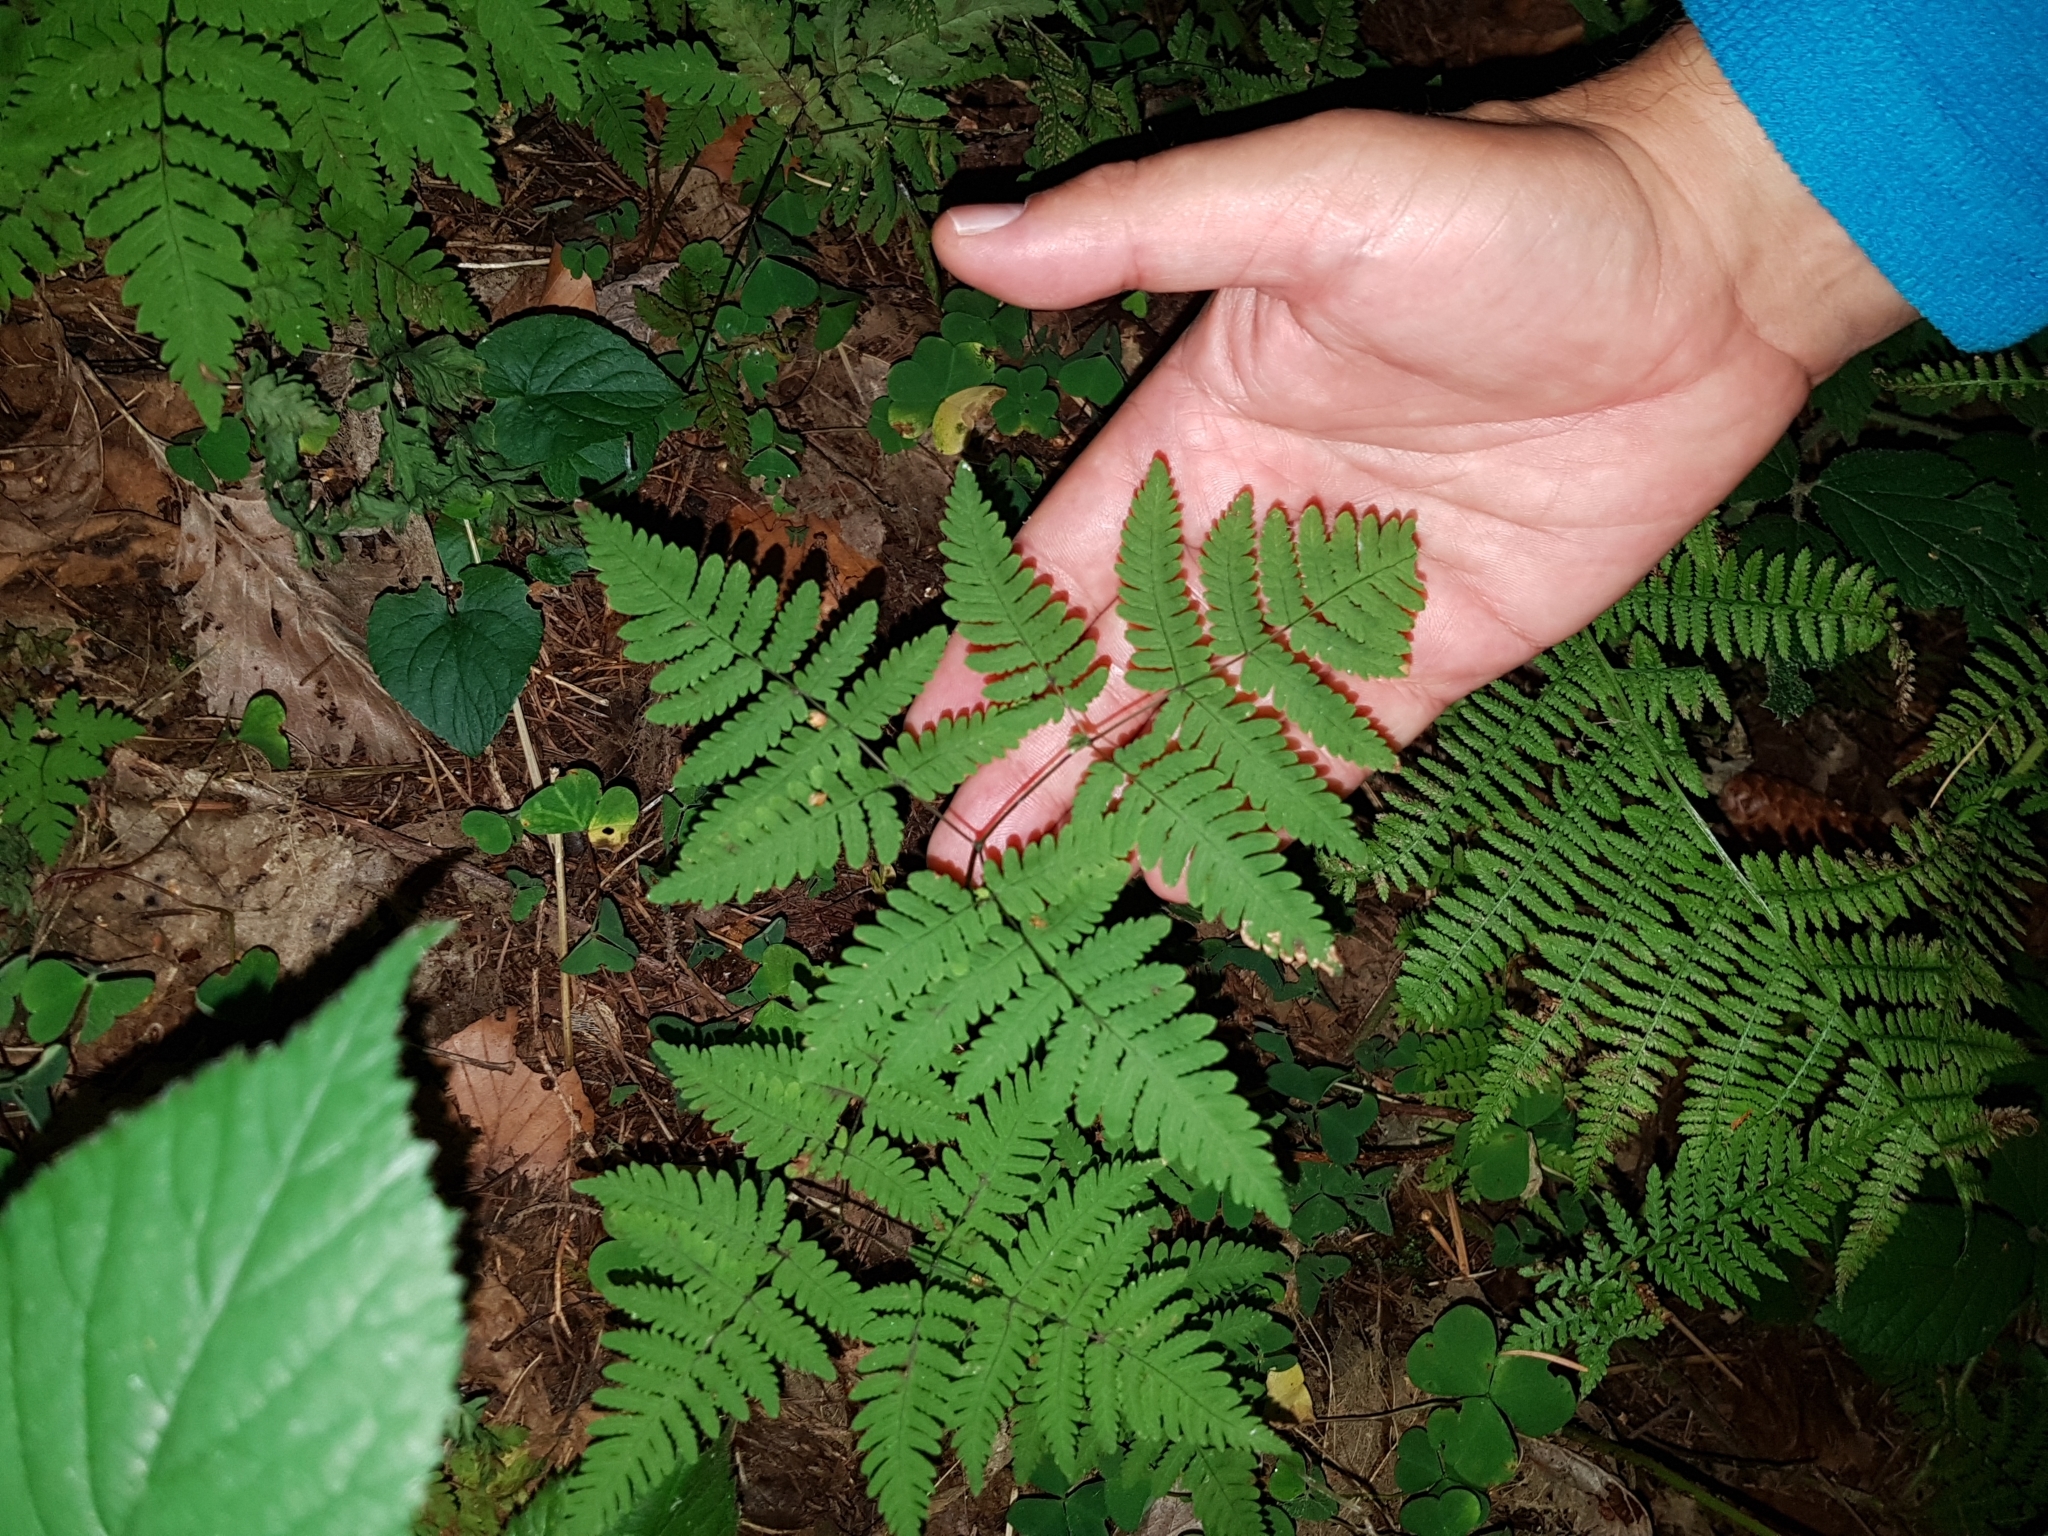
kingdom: Plantae
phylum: Tracheophyta
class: Polypodiopsida
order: Polypodiales
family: Cystopteridaceae
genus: Gymnocarpium
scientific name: Gymnocarpium dryopteris
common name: Oak fern
